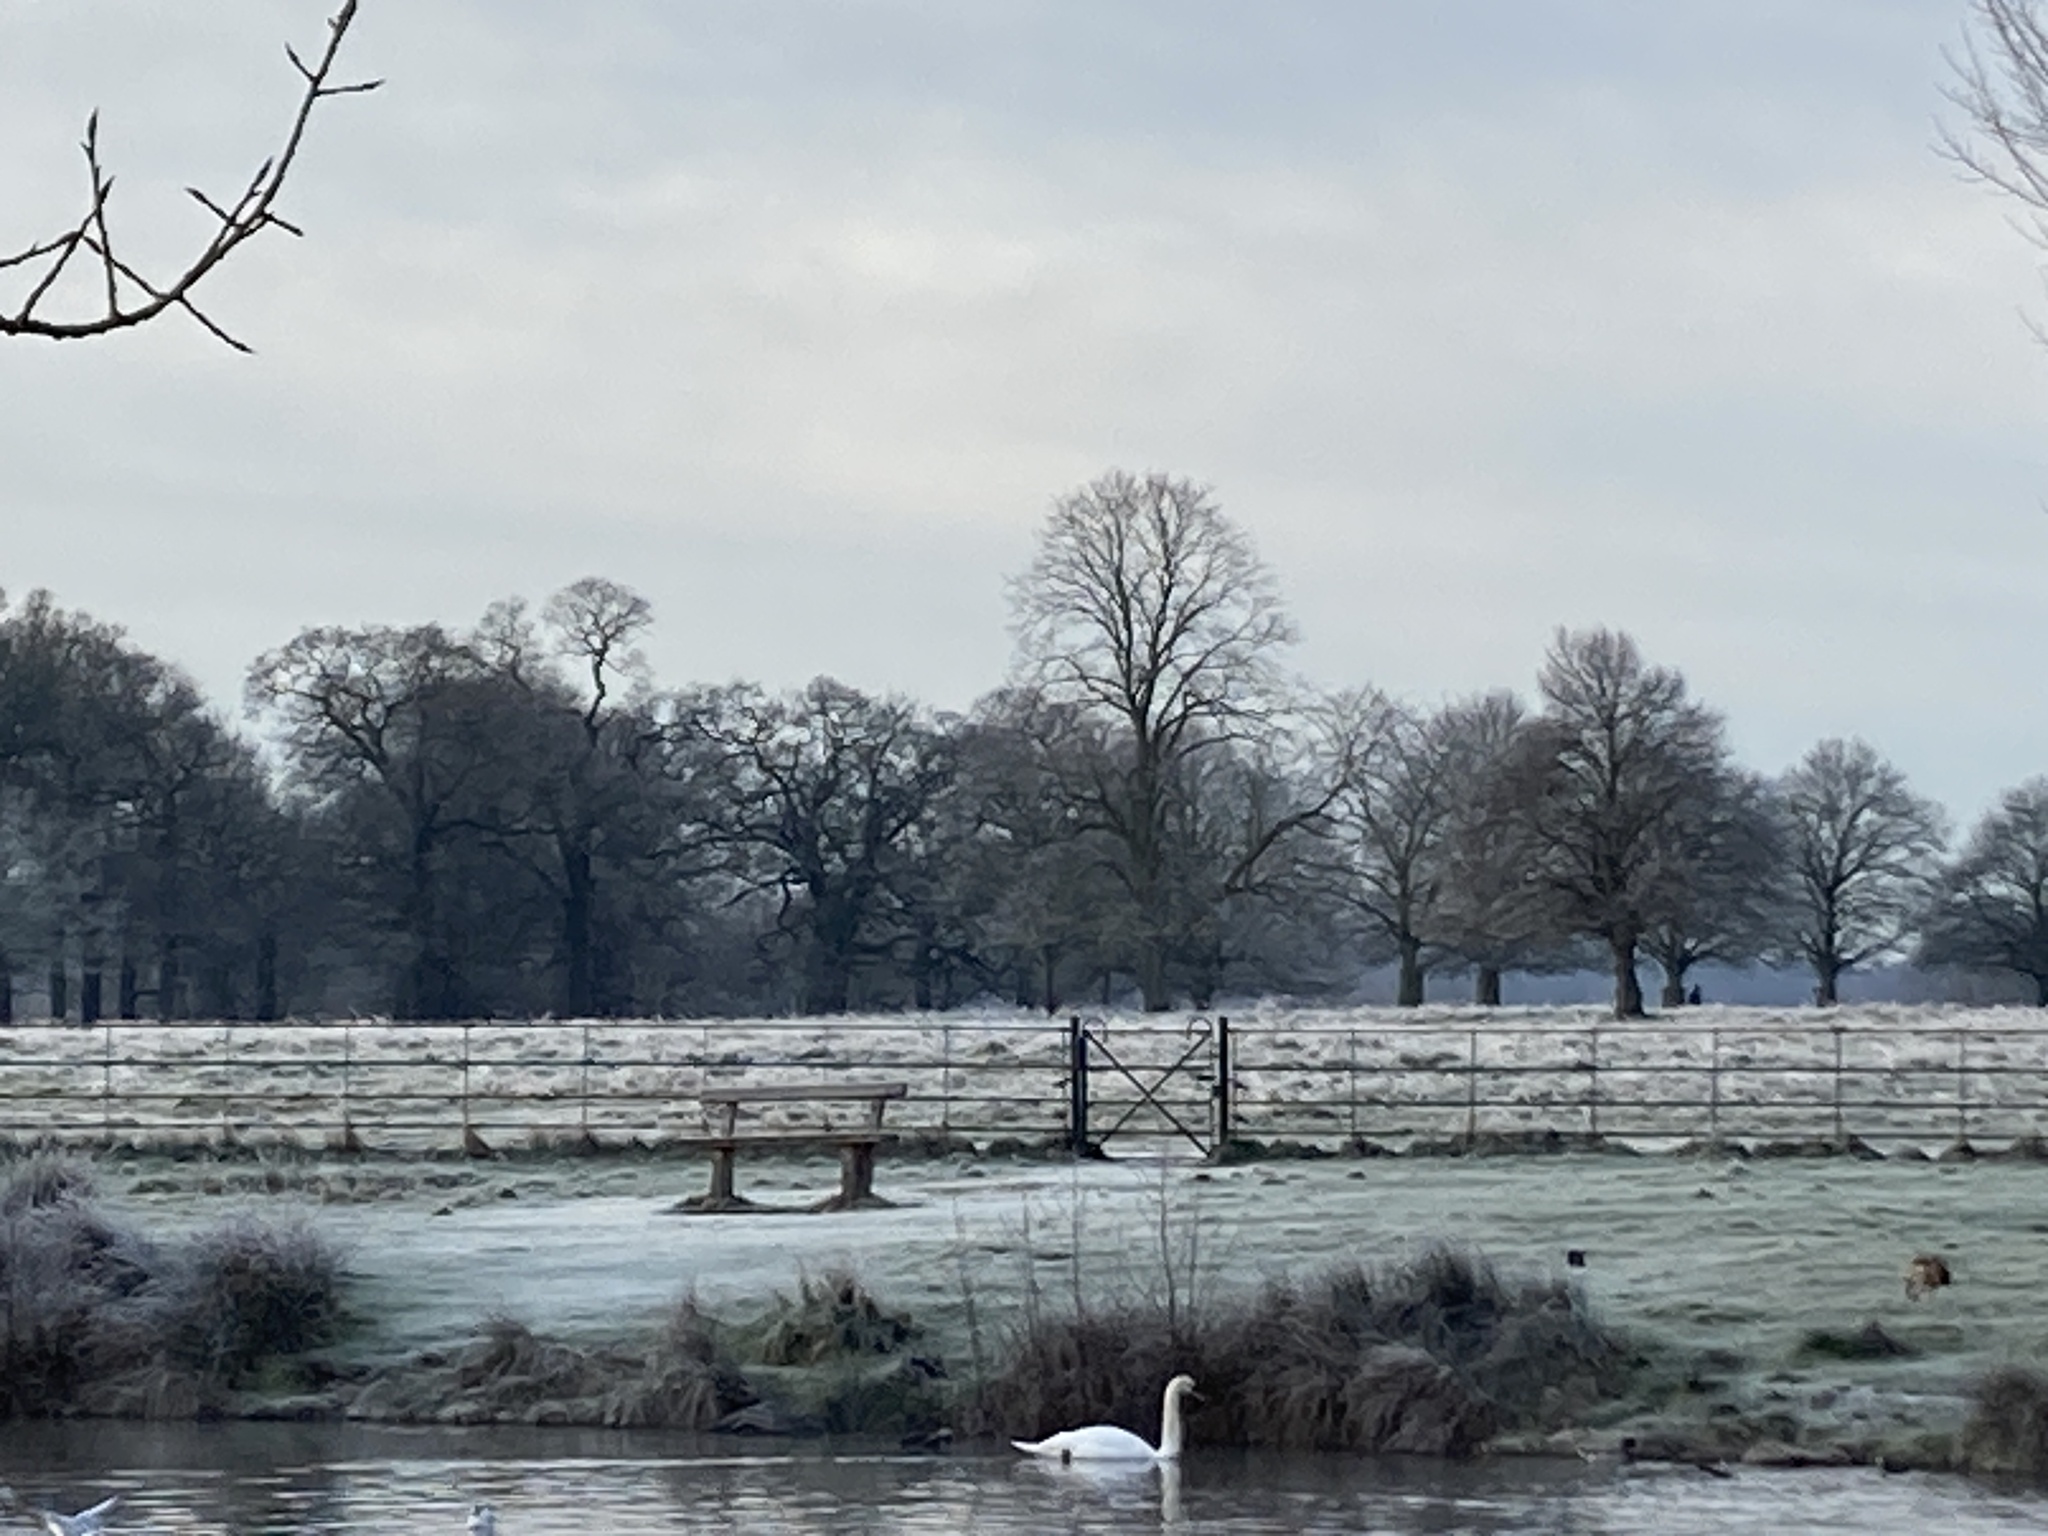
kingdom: Animalia
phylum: Chordata
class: Aves
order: Anseriformes
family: Anatidae
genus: Cygnus
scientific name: Cygnus olor
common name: Mute swan
